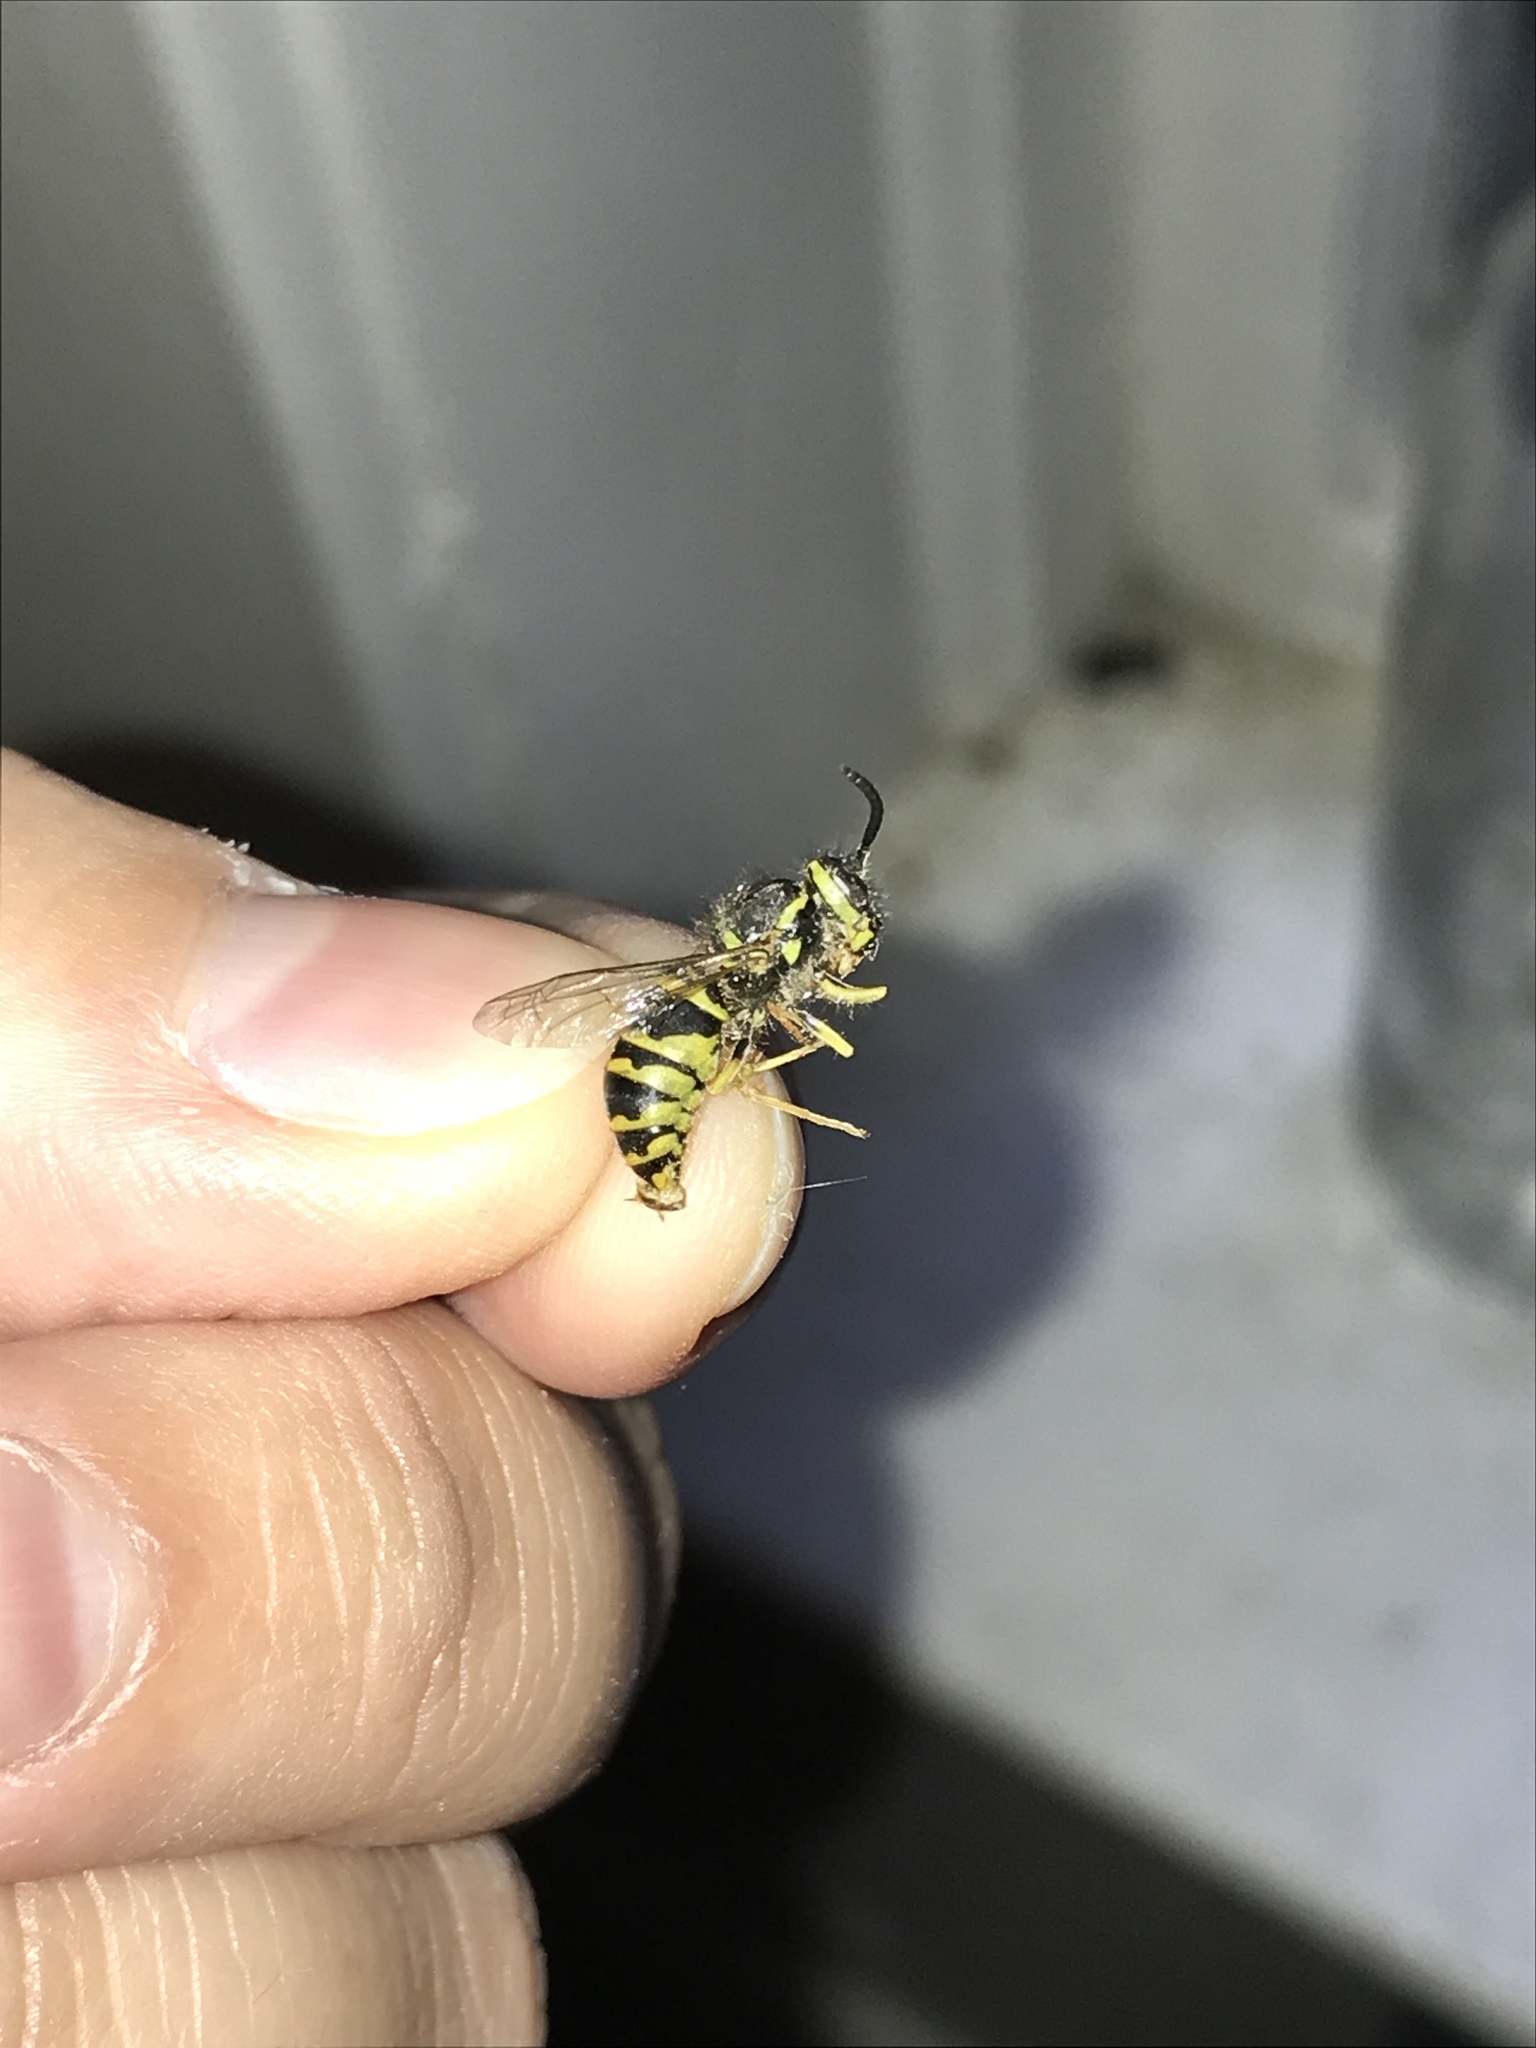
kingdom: Animalia
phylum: Arthropoda
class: Insecta
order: Hymenoptera
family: Vespidae
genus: Vespula
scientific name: Vespula maculifrons
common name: Eastern yellowjacket
